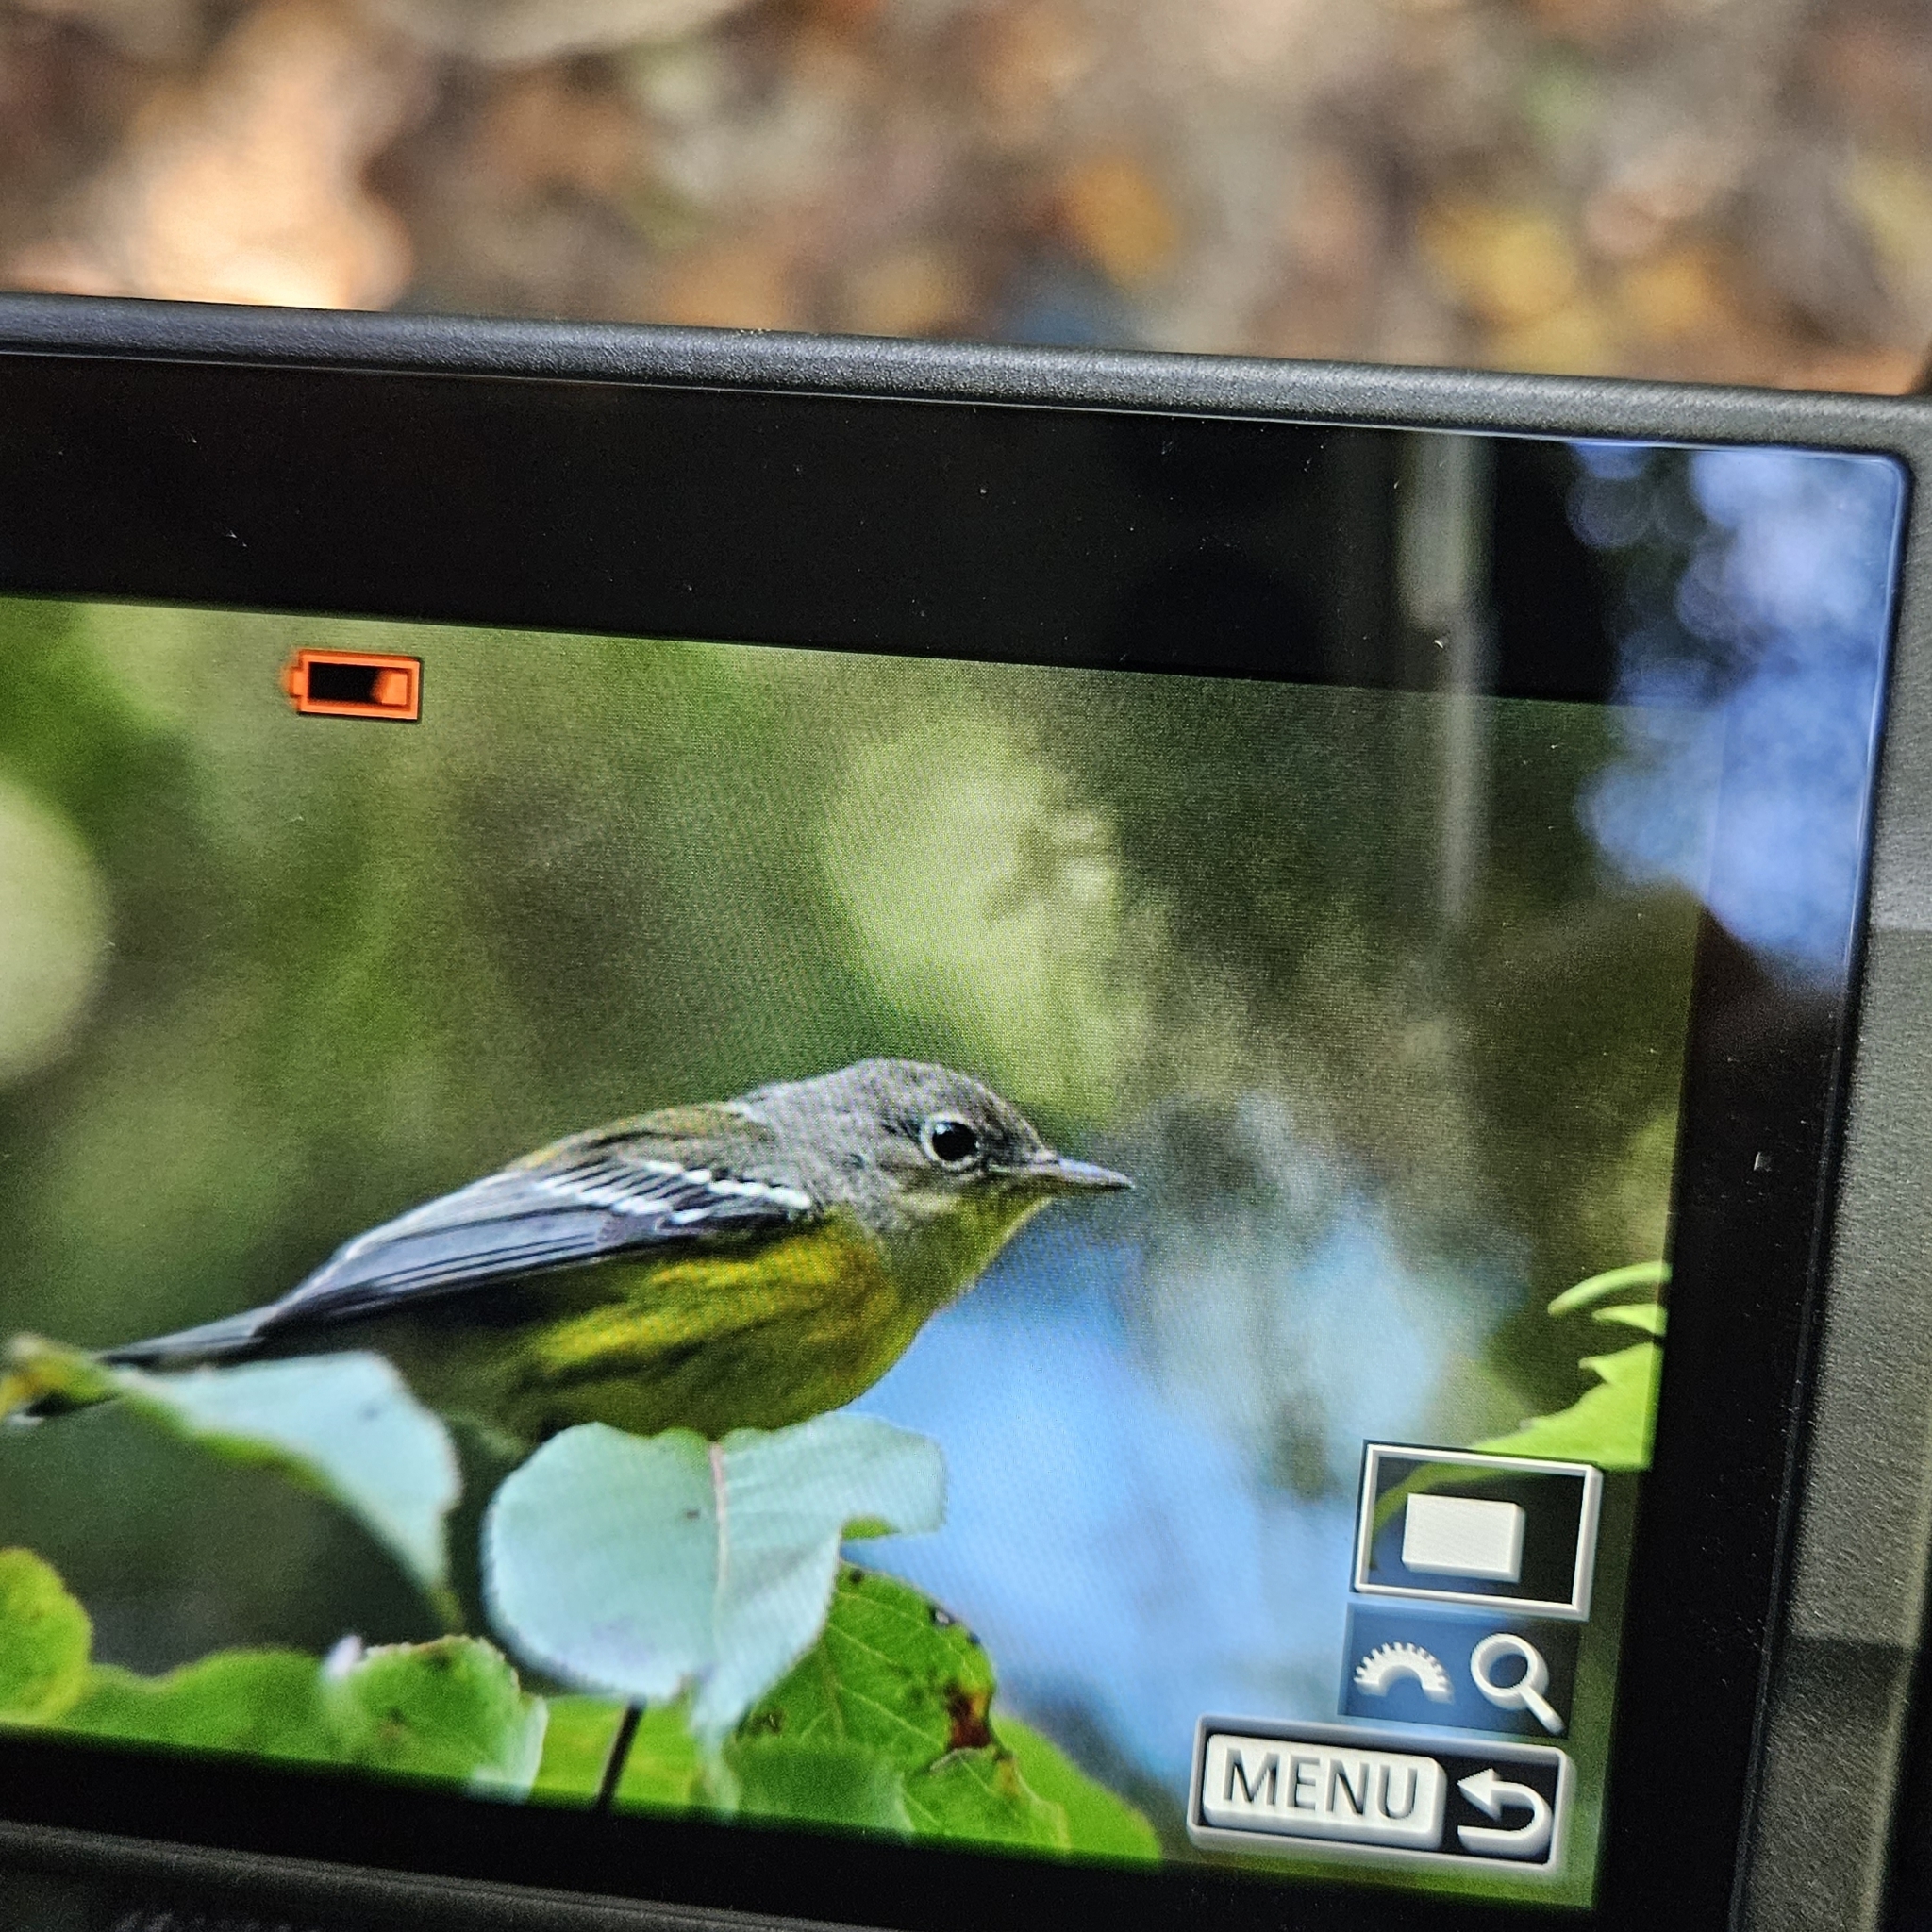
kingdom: Animalia
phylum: Chordata
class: Aves
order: Passeriformes
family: Parulidae
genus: Setophaga
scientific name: Setophaga magnolia
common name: Magnolia warbler
